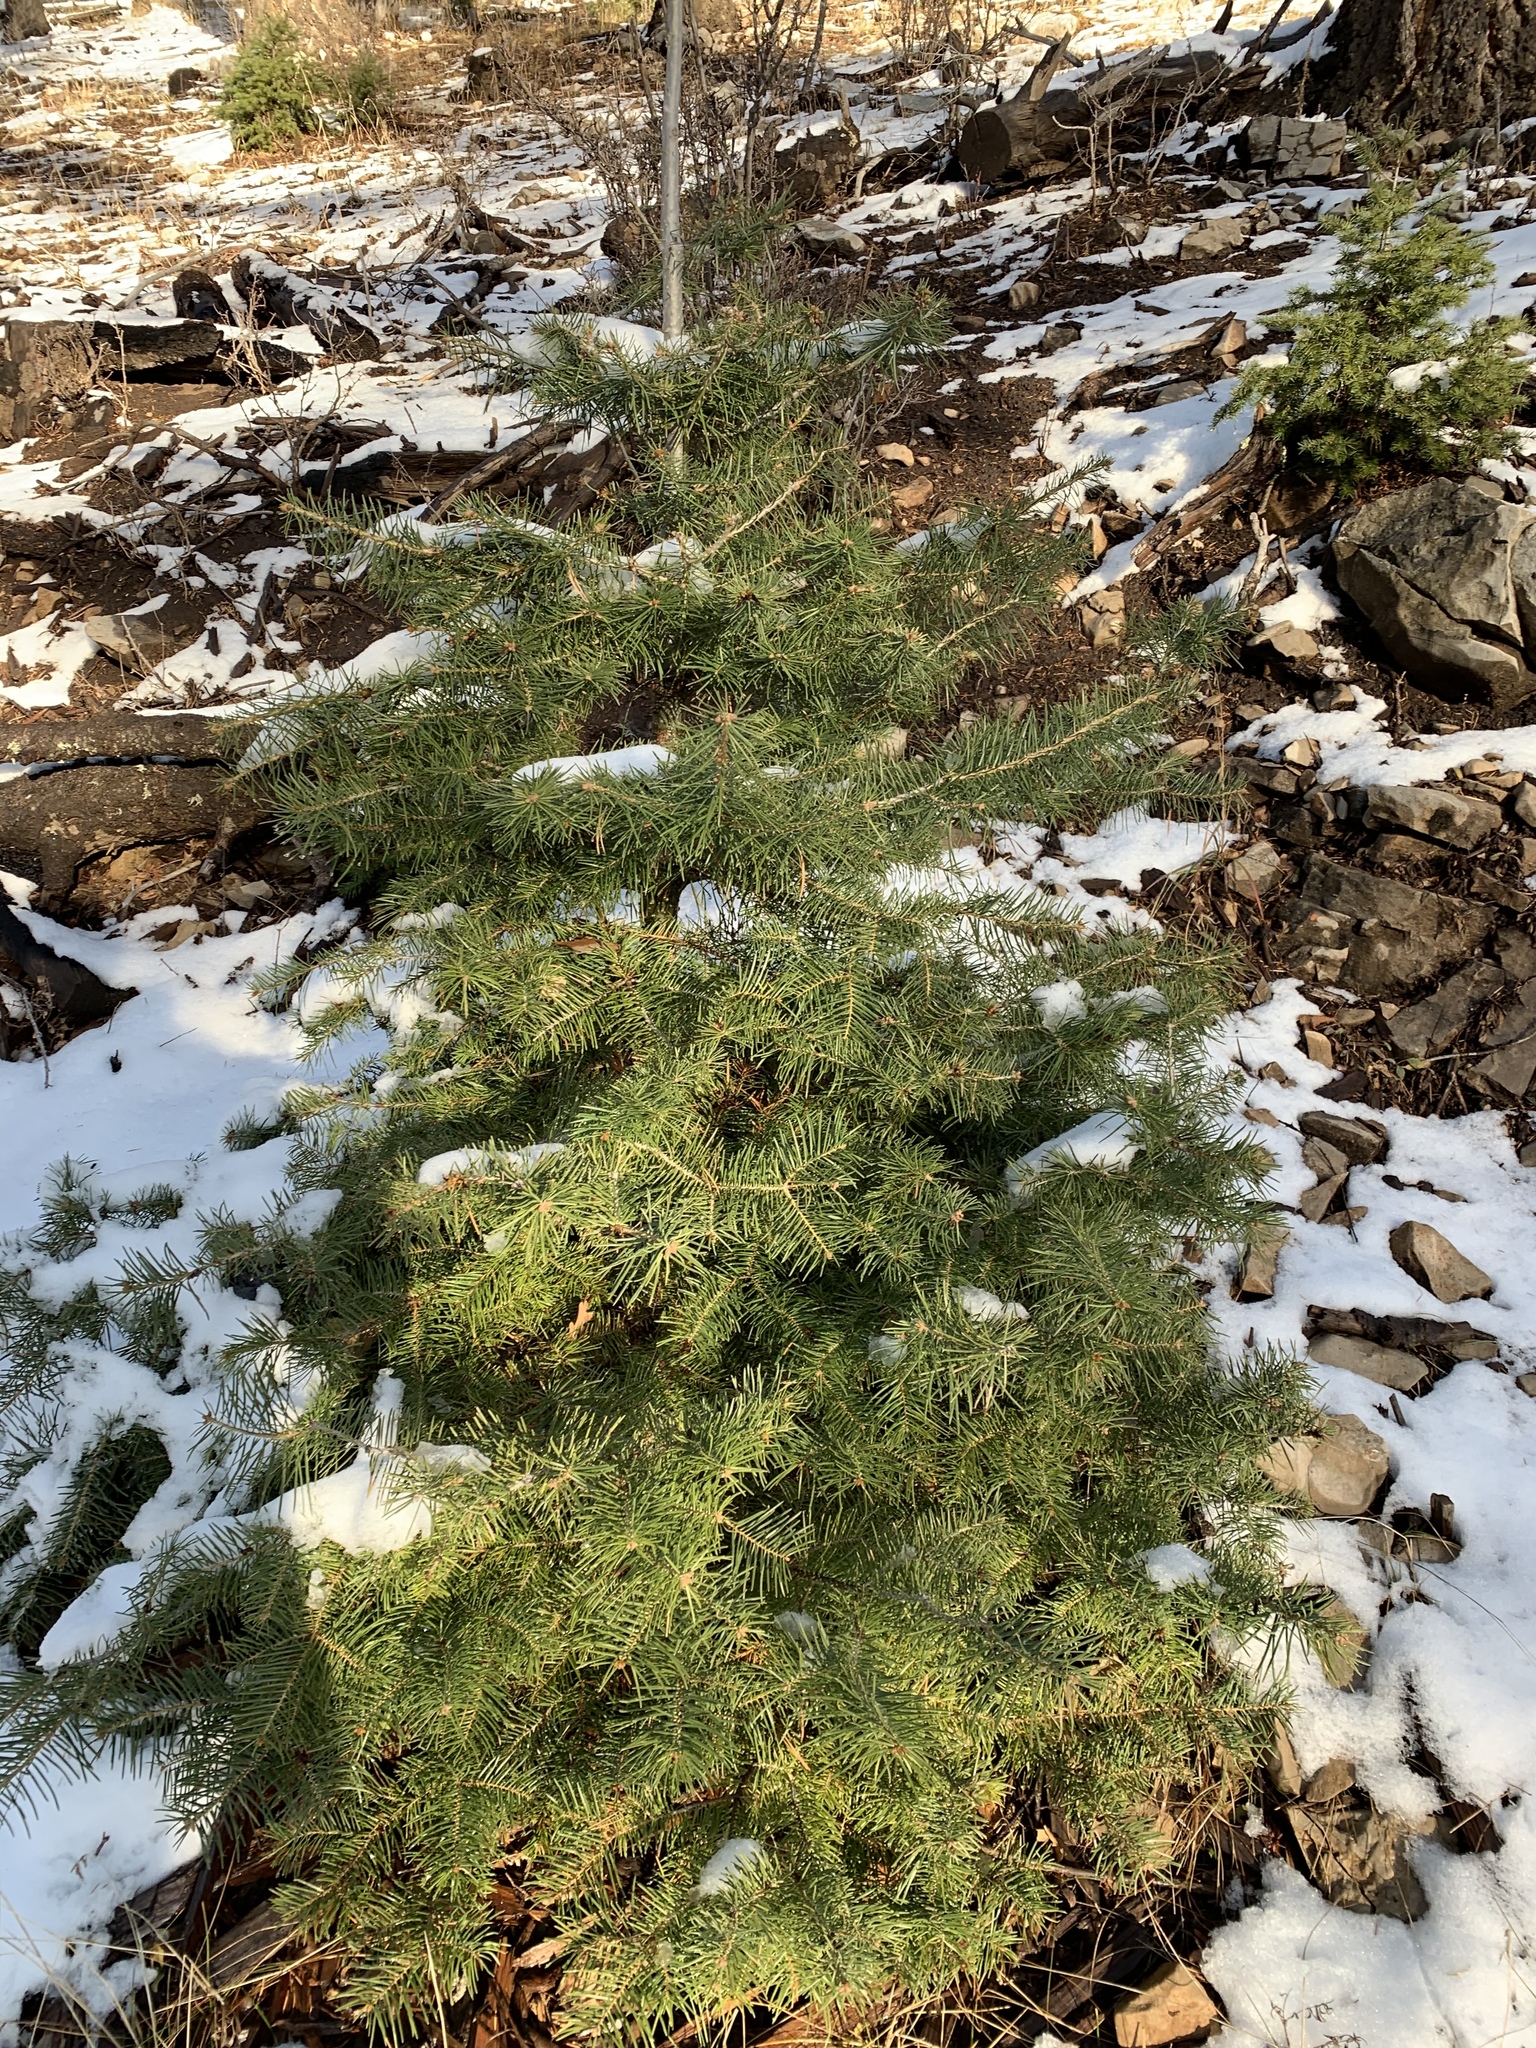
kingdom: Plantae
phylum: Tracheophyta
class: Pinopsida
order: Pinales
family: Pinaceae
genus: Abies
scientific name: Abies concolor
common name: Colorado fir
